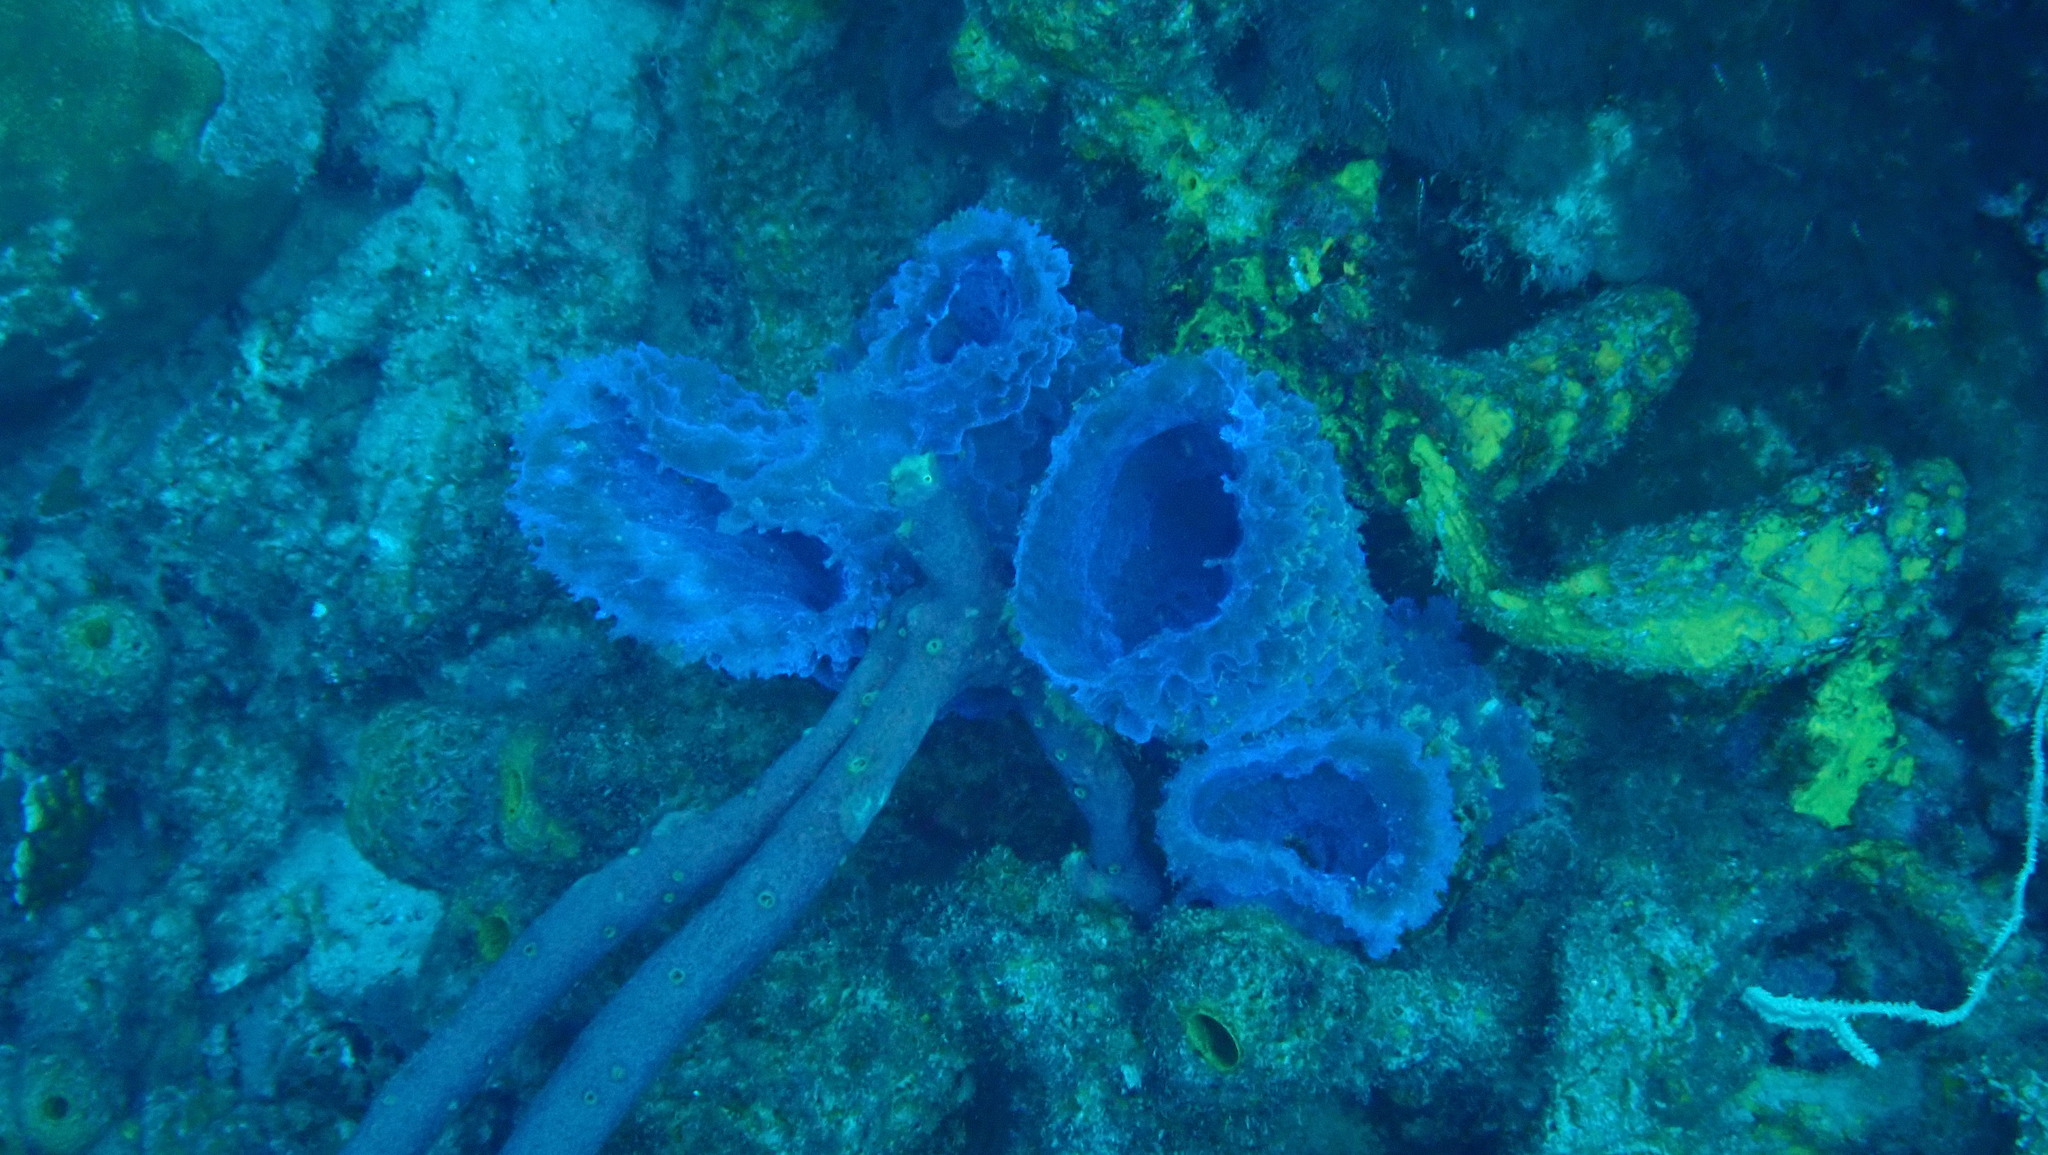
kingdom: Animalia
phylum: Porifera
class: Demospongiae
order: Haplosclerida
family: Callyspongiidae
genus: Callyspongia
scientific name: Callyspongia plicifera
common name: Azure vase sponge
